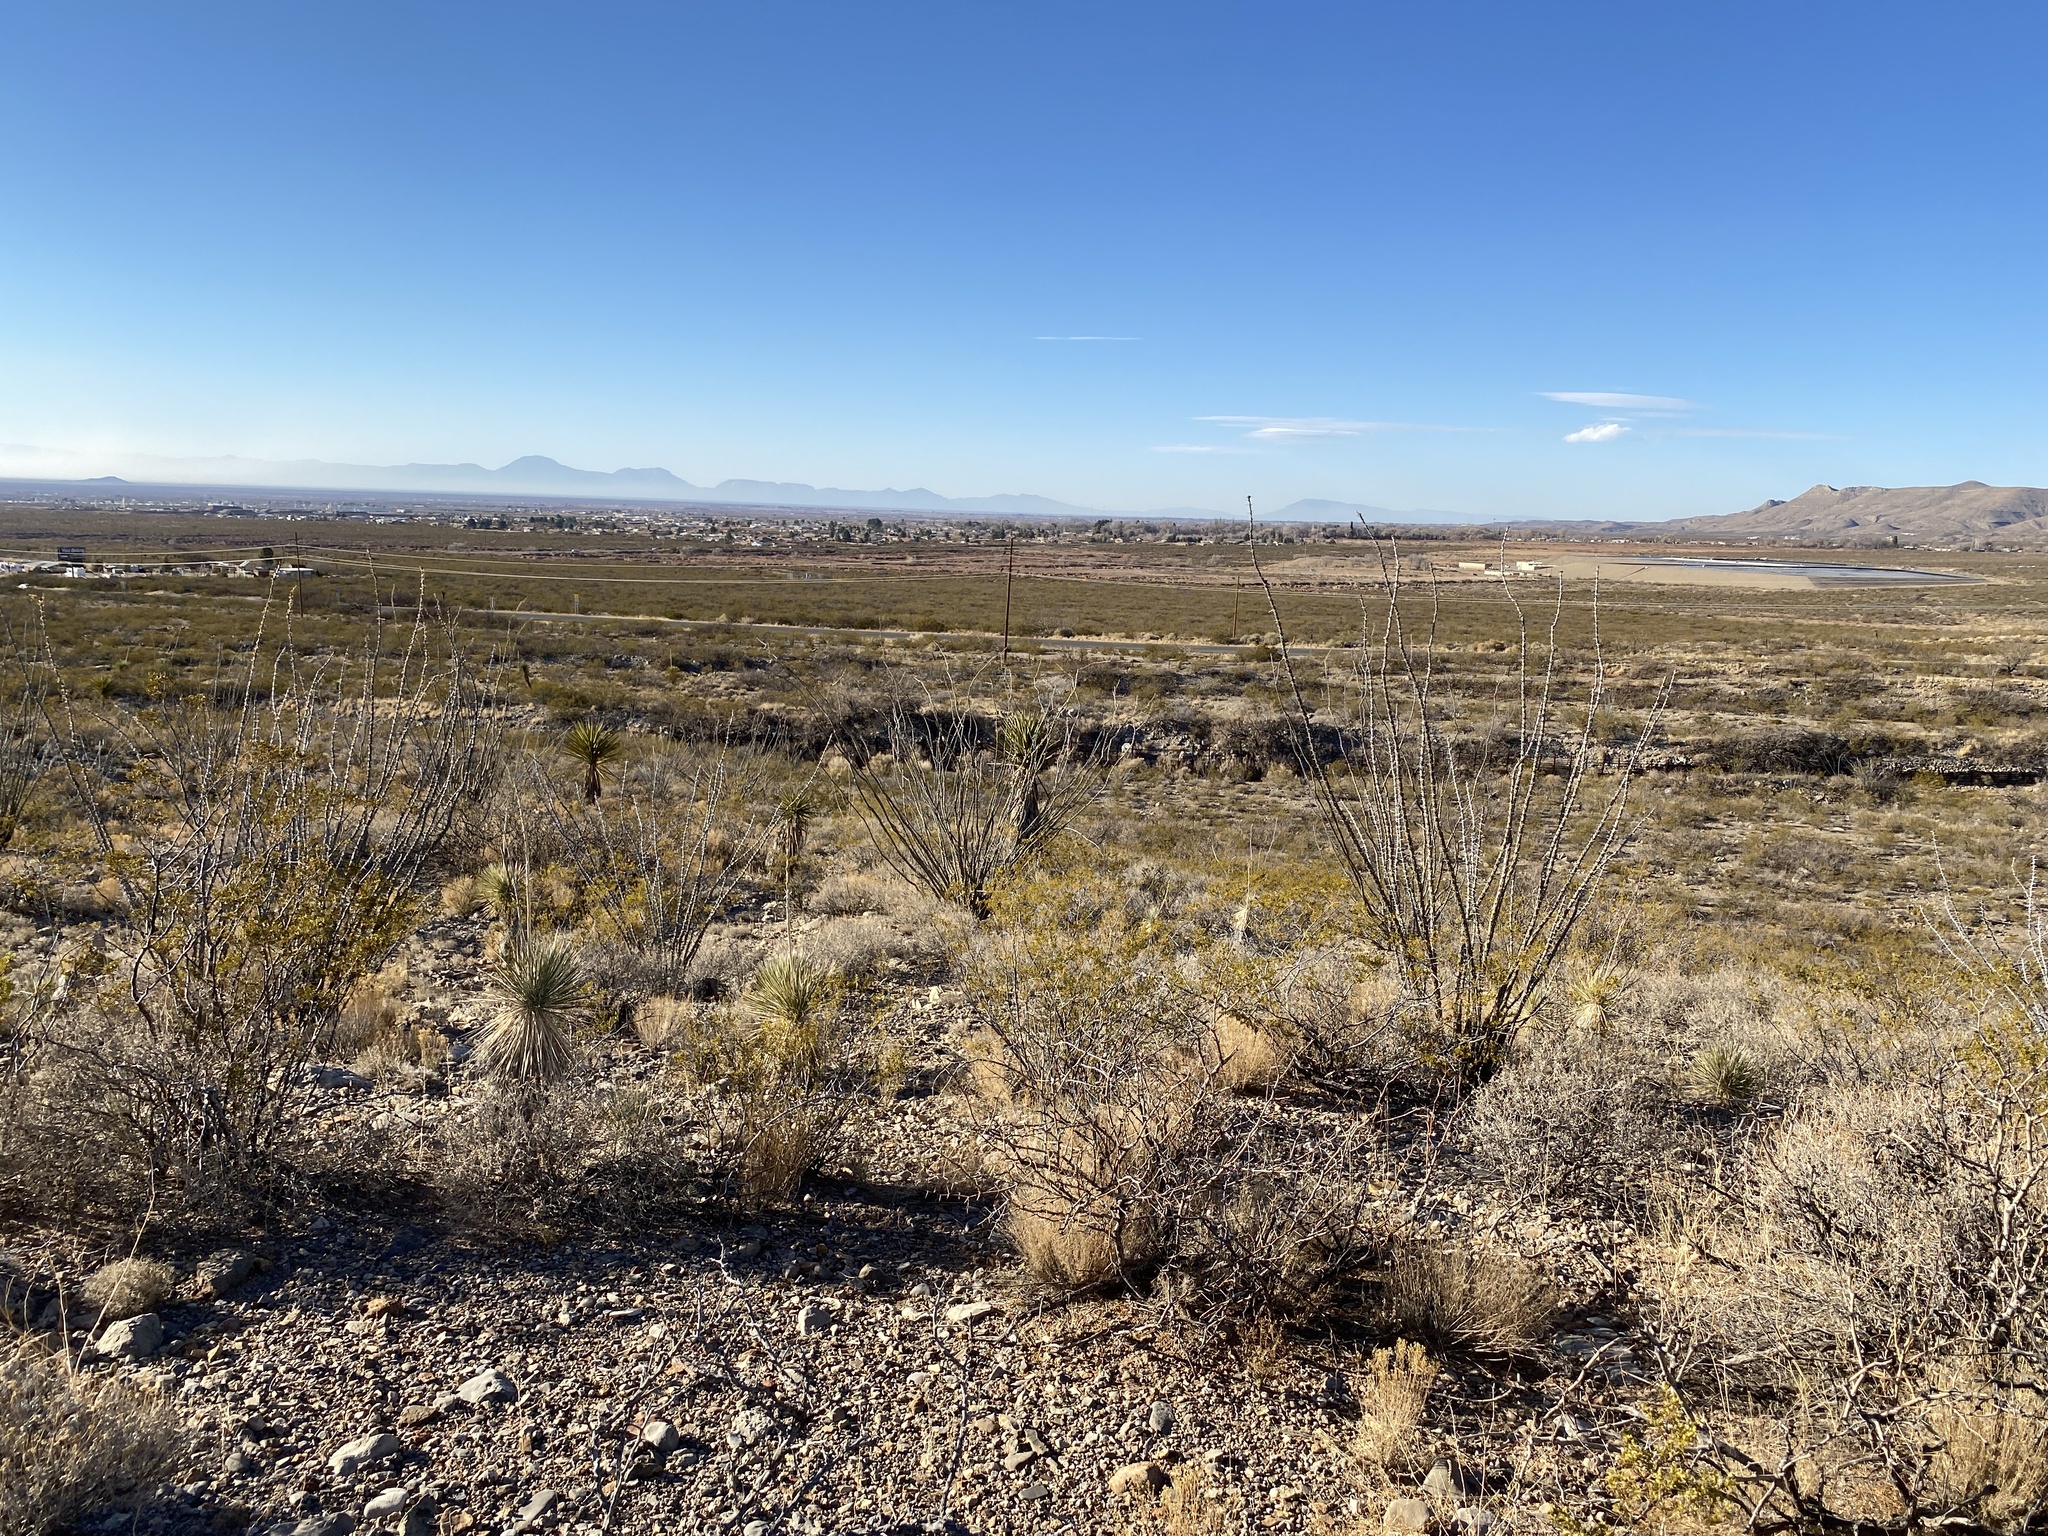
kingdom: Plantae
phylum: Tracheophyta
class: Magnoliopsida
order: Ericales
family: Fouquieriaceae
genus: Fouquieria
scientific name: Fouquieria splendens
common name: Vine-cactus
